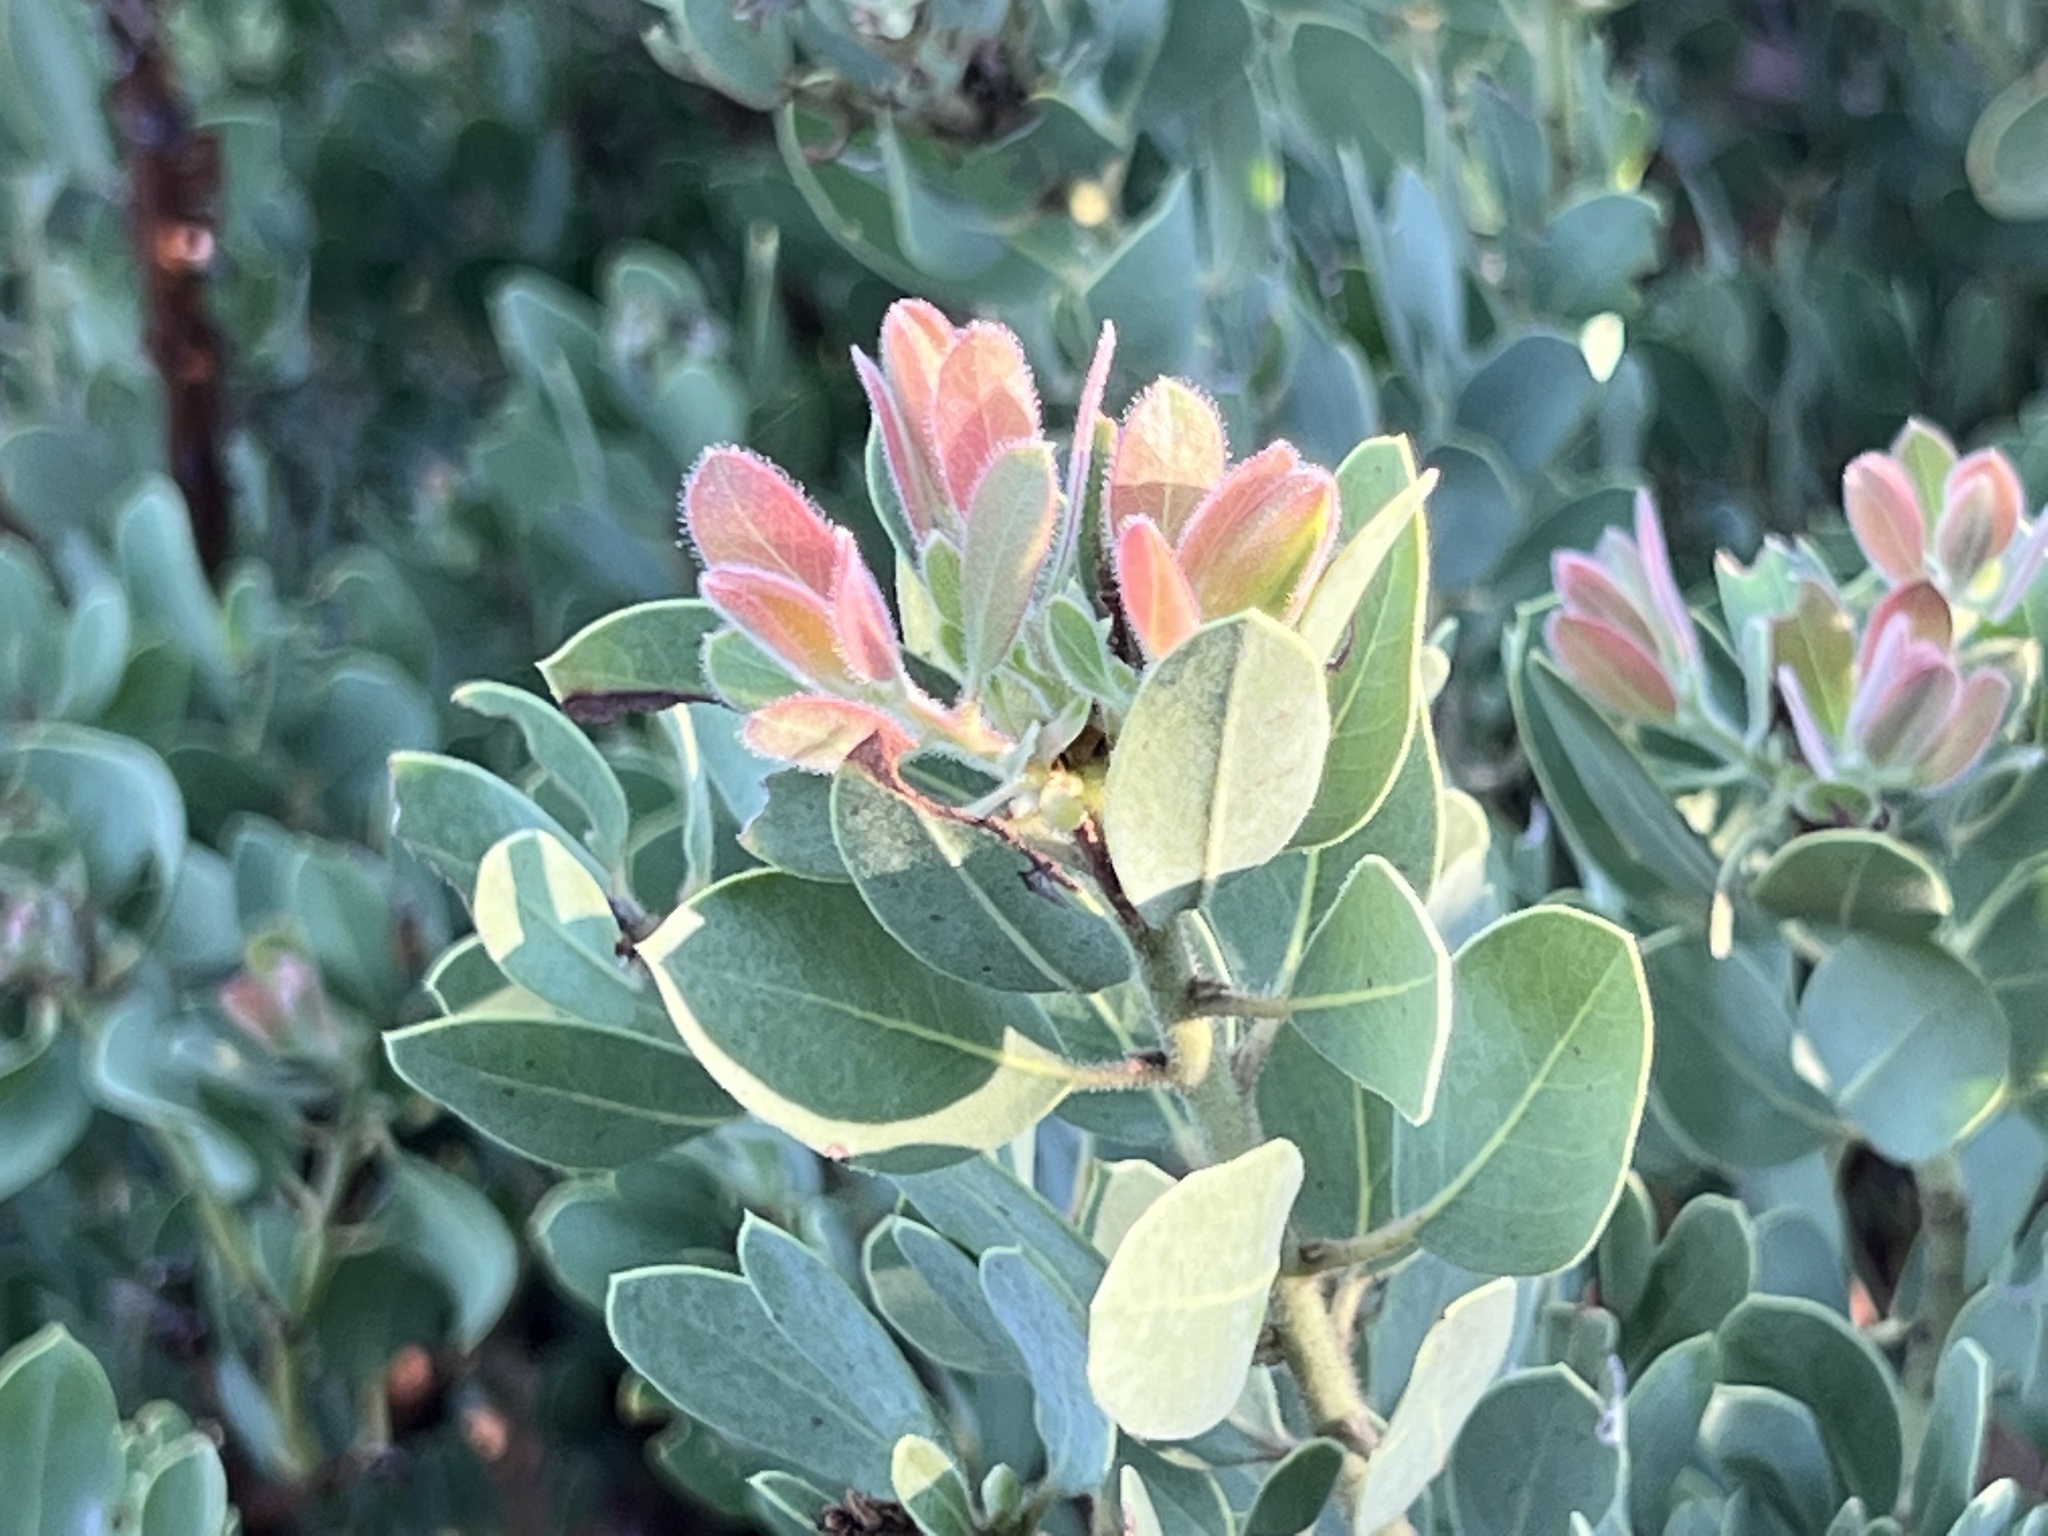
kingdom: Plantae
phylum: Tracheophyta
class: Magnoliopsida
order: Ericales
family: Ericaceae
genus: Arctostaphylos
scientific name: Arctostaphylos pringlei
